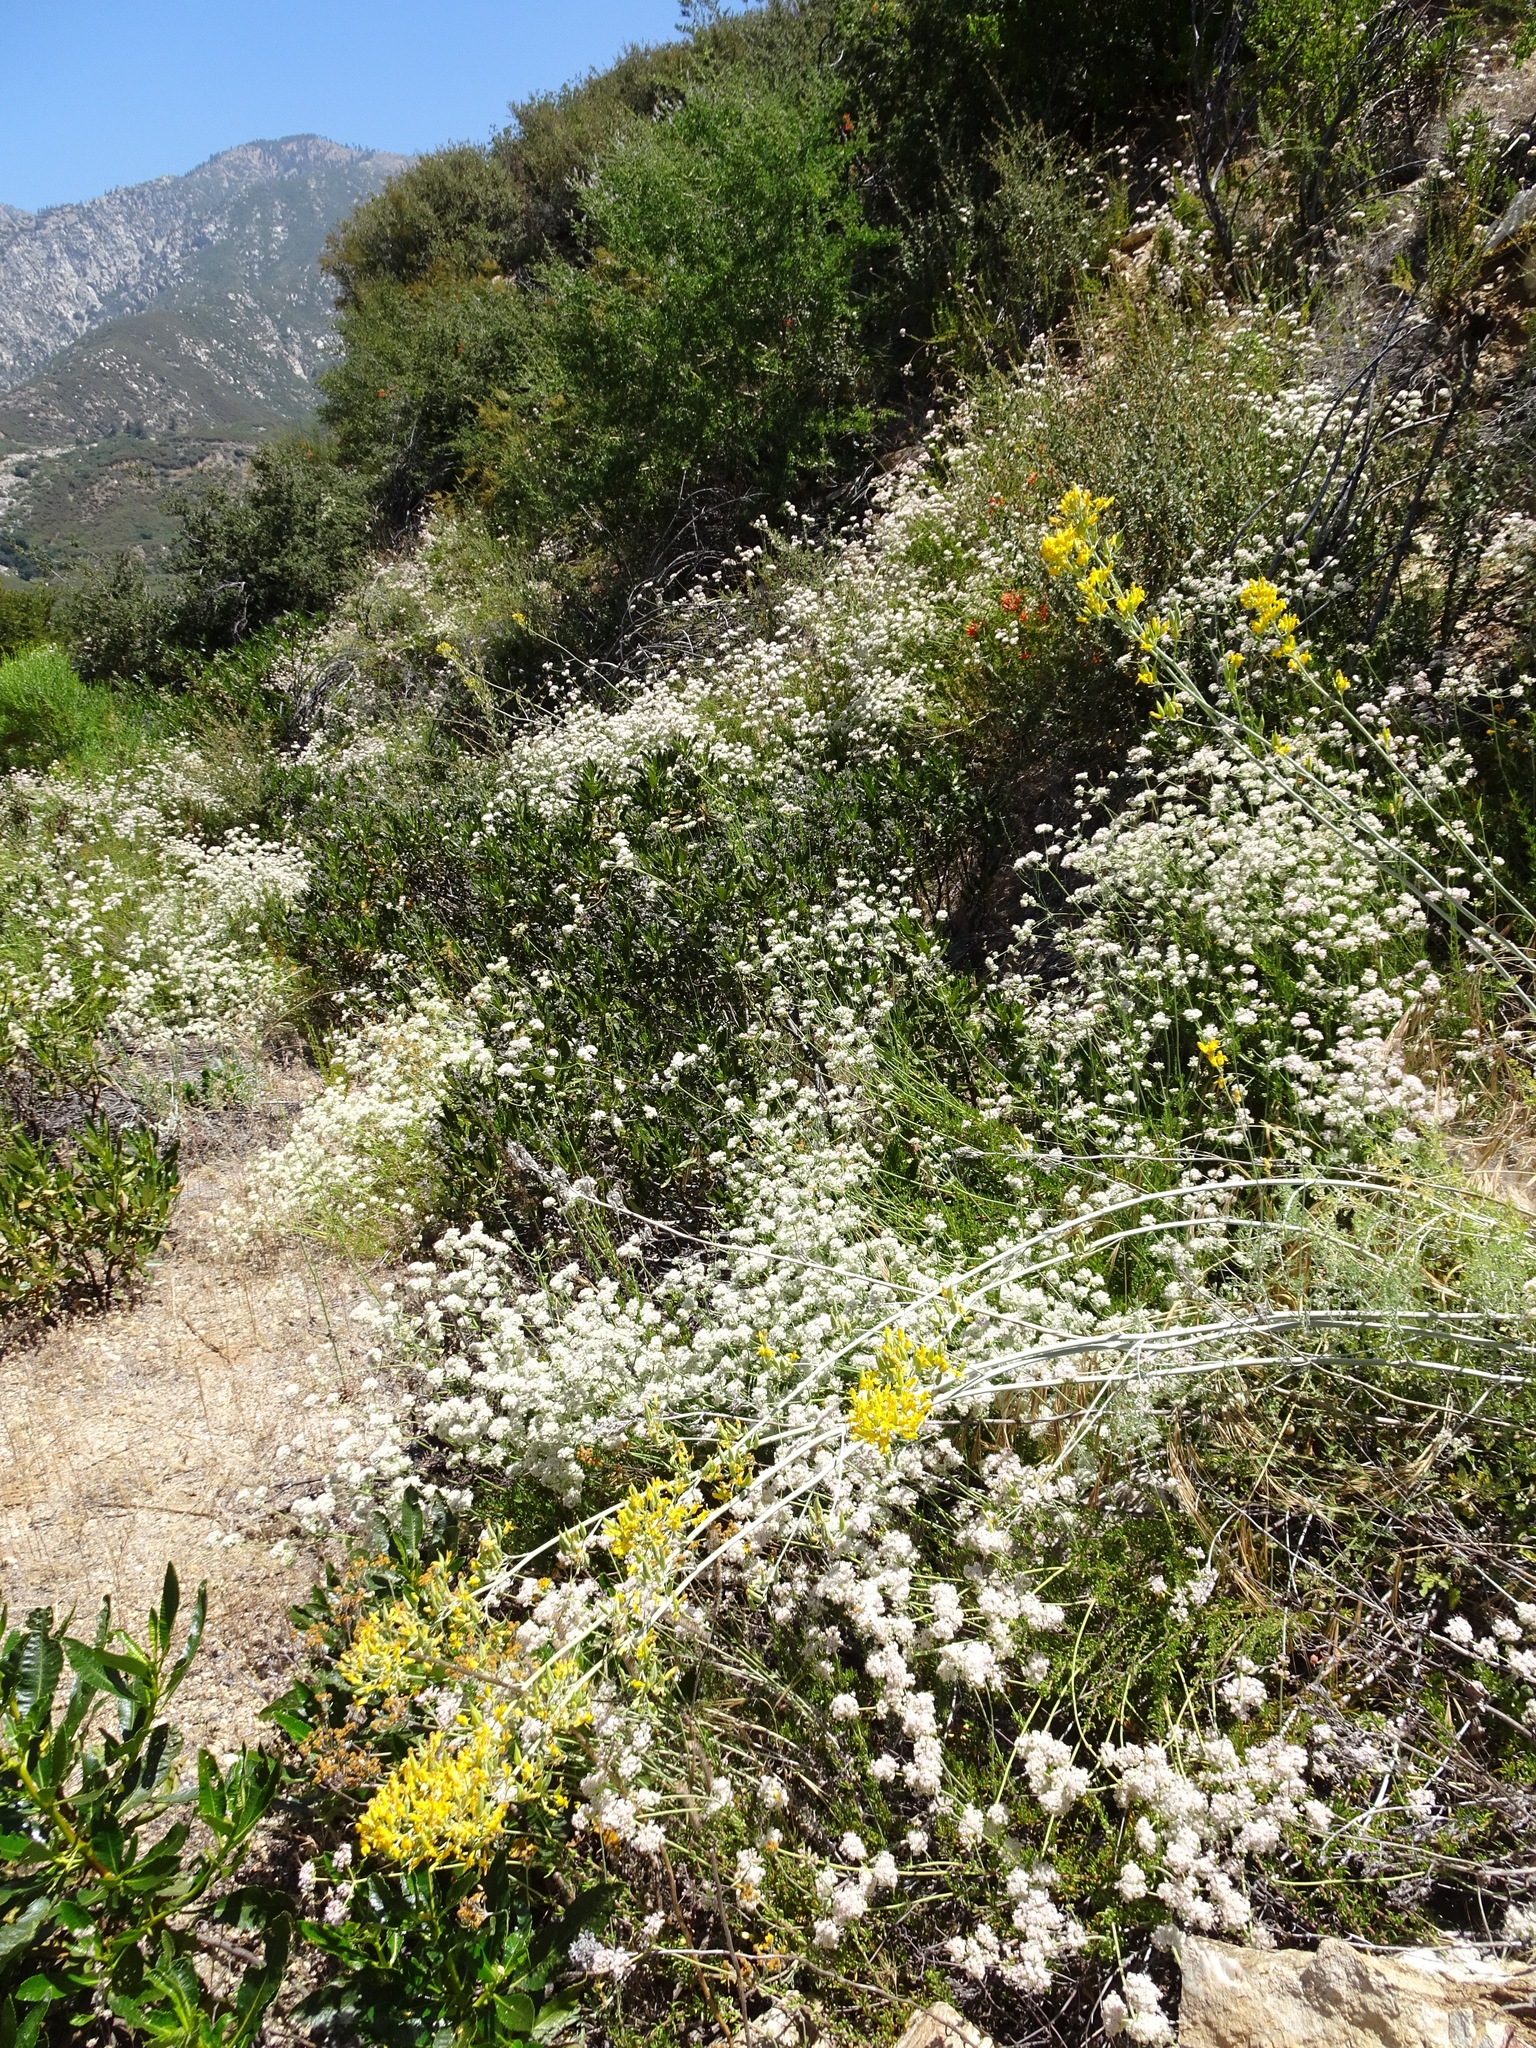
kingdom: Plantae
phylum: Tracheophyta
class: Magnoliopsida
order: Ranunculales
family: Papaveraceae
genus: Ehrendorferia
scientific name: Ehrendorferia chrysantha
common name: Golden eardrops
